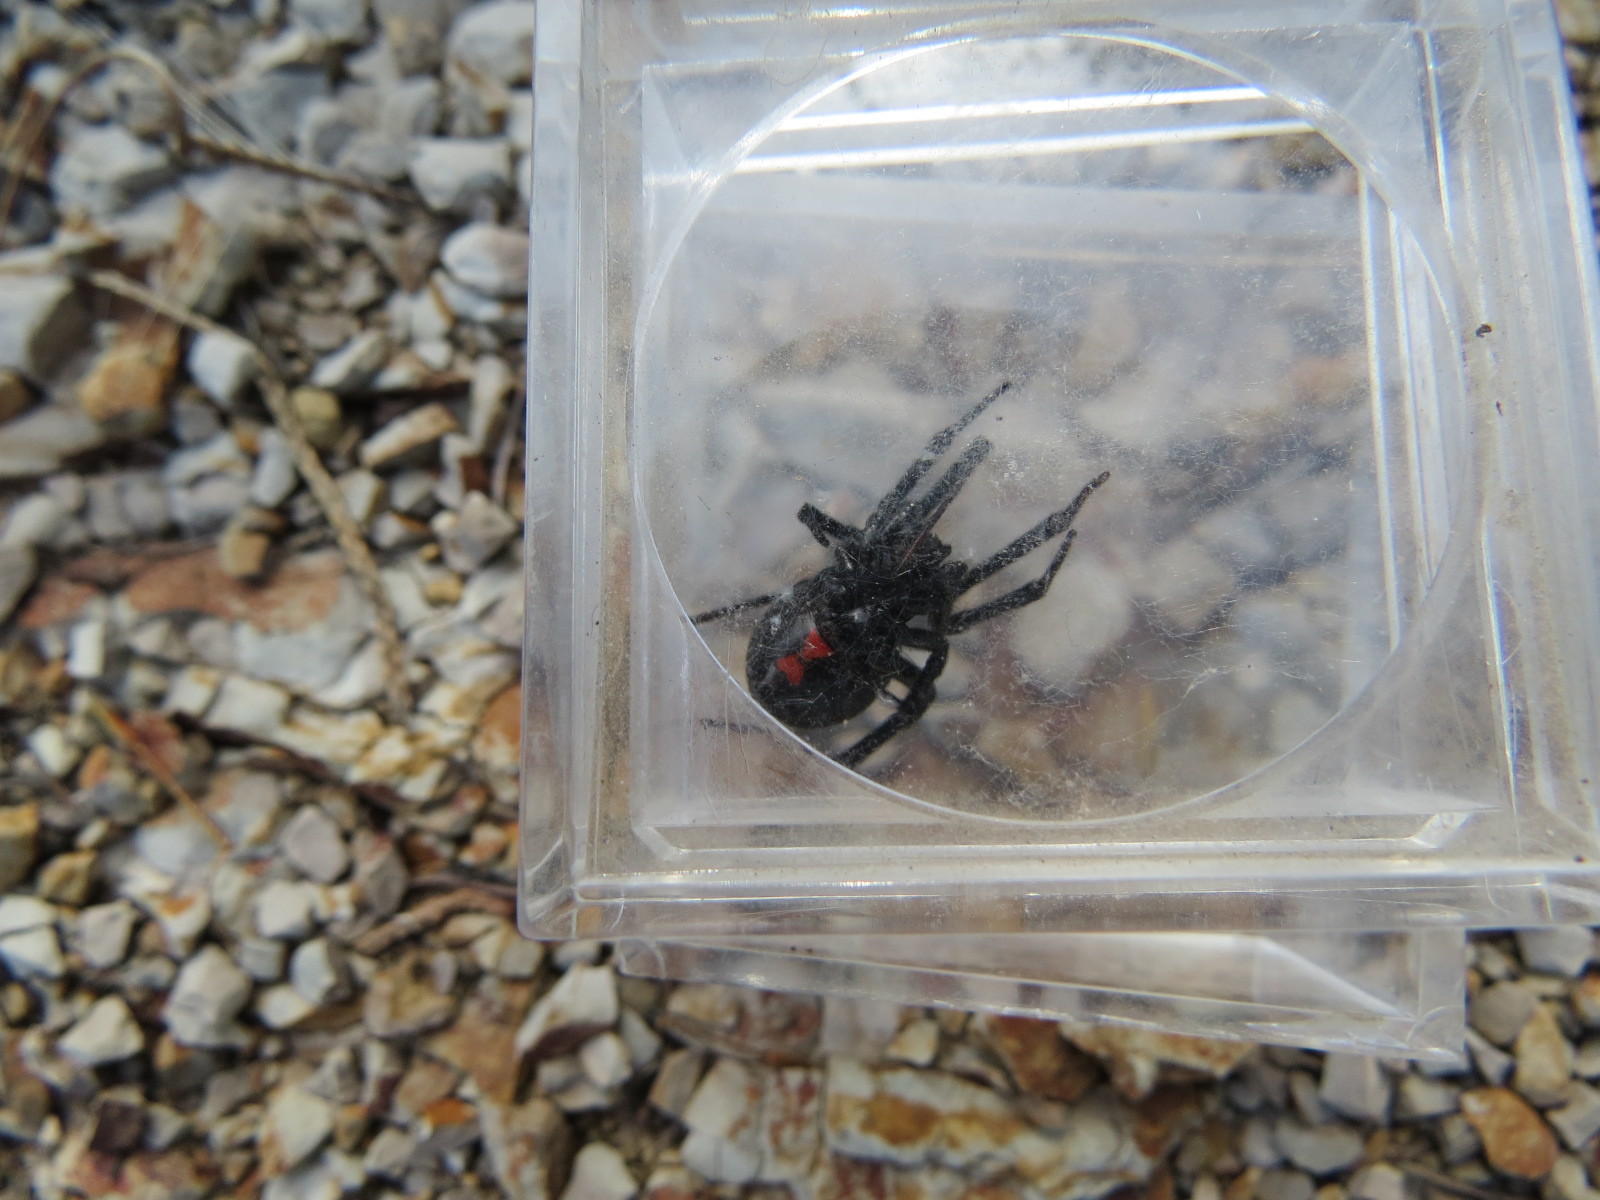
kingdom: Animalia
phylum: Arthropoda
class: Arachnida
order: Araneae
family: Theridiidae
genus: Latrodectus
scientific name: Latrodectus hesperus
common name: Western black widow
